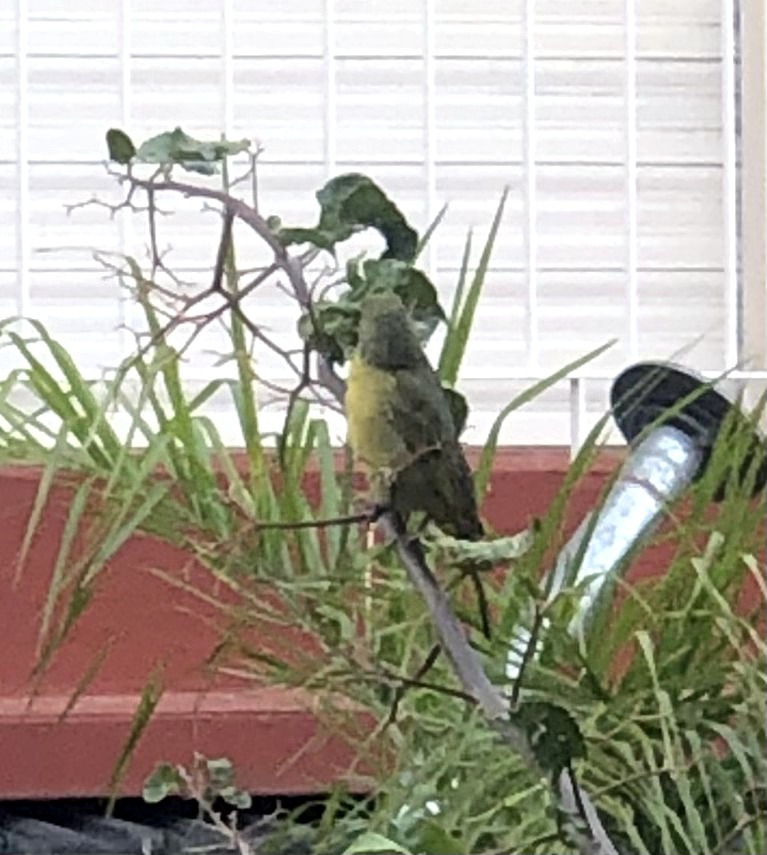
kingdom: Animalia
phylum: Chordata
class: Aves
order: Passeriformes
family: Cardinalidae
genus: Piranga
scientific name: Piranga flava
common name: Red tanager
